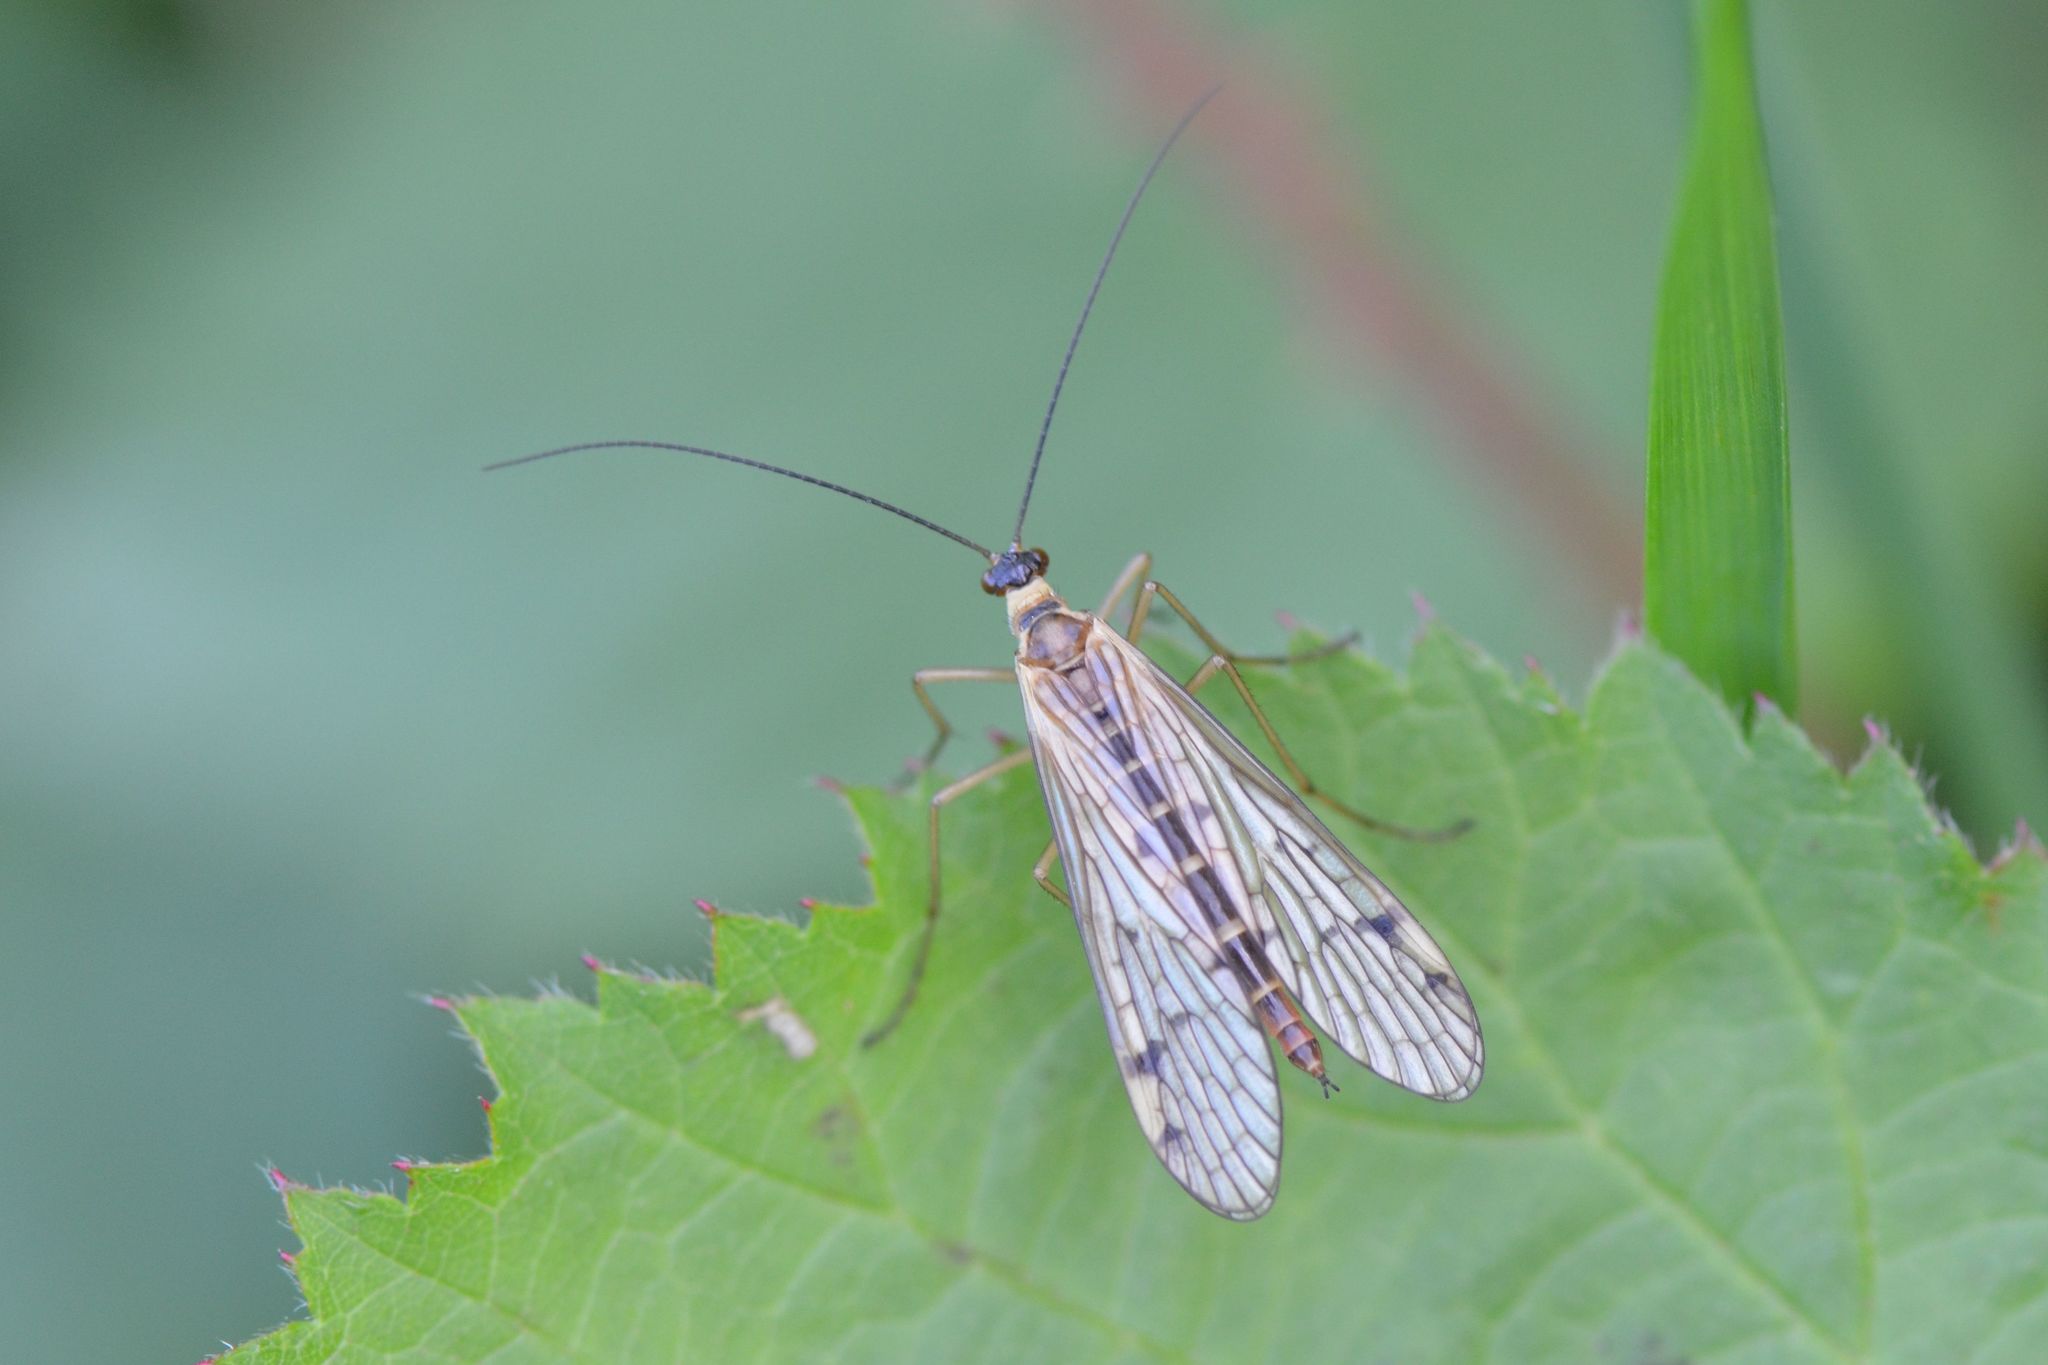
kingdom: Animalia
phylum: Arthropoda
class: Insecta
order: Mecoptera
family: Panorpidae
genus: Panorpa
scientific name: Panorpa alpina
